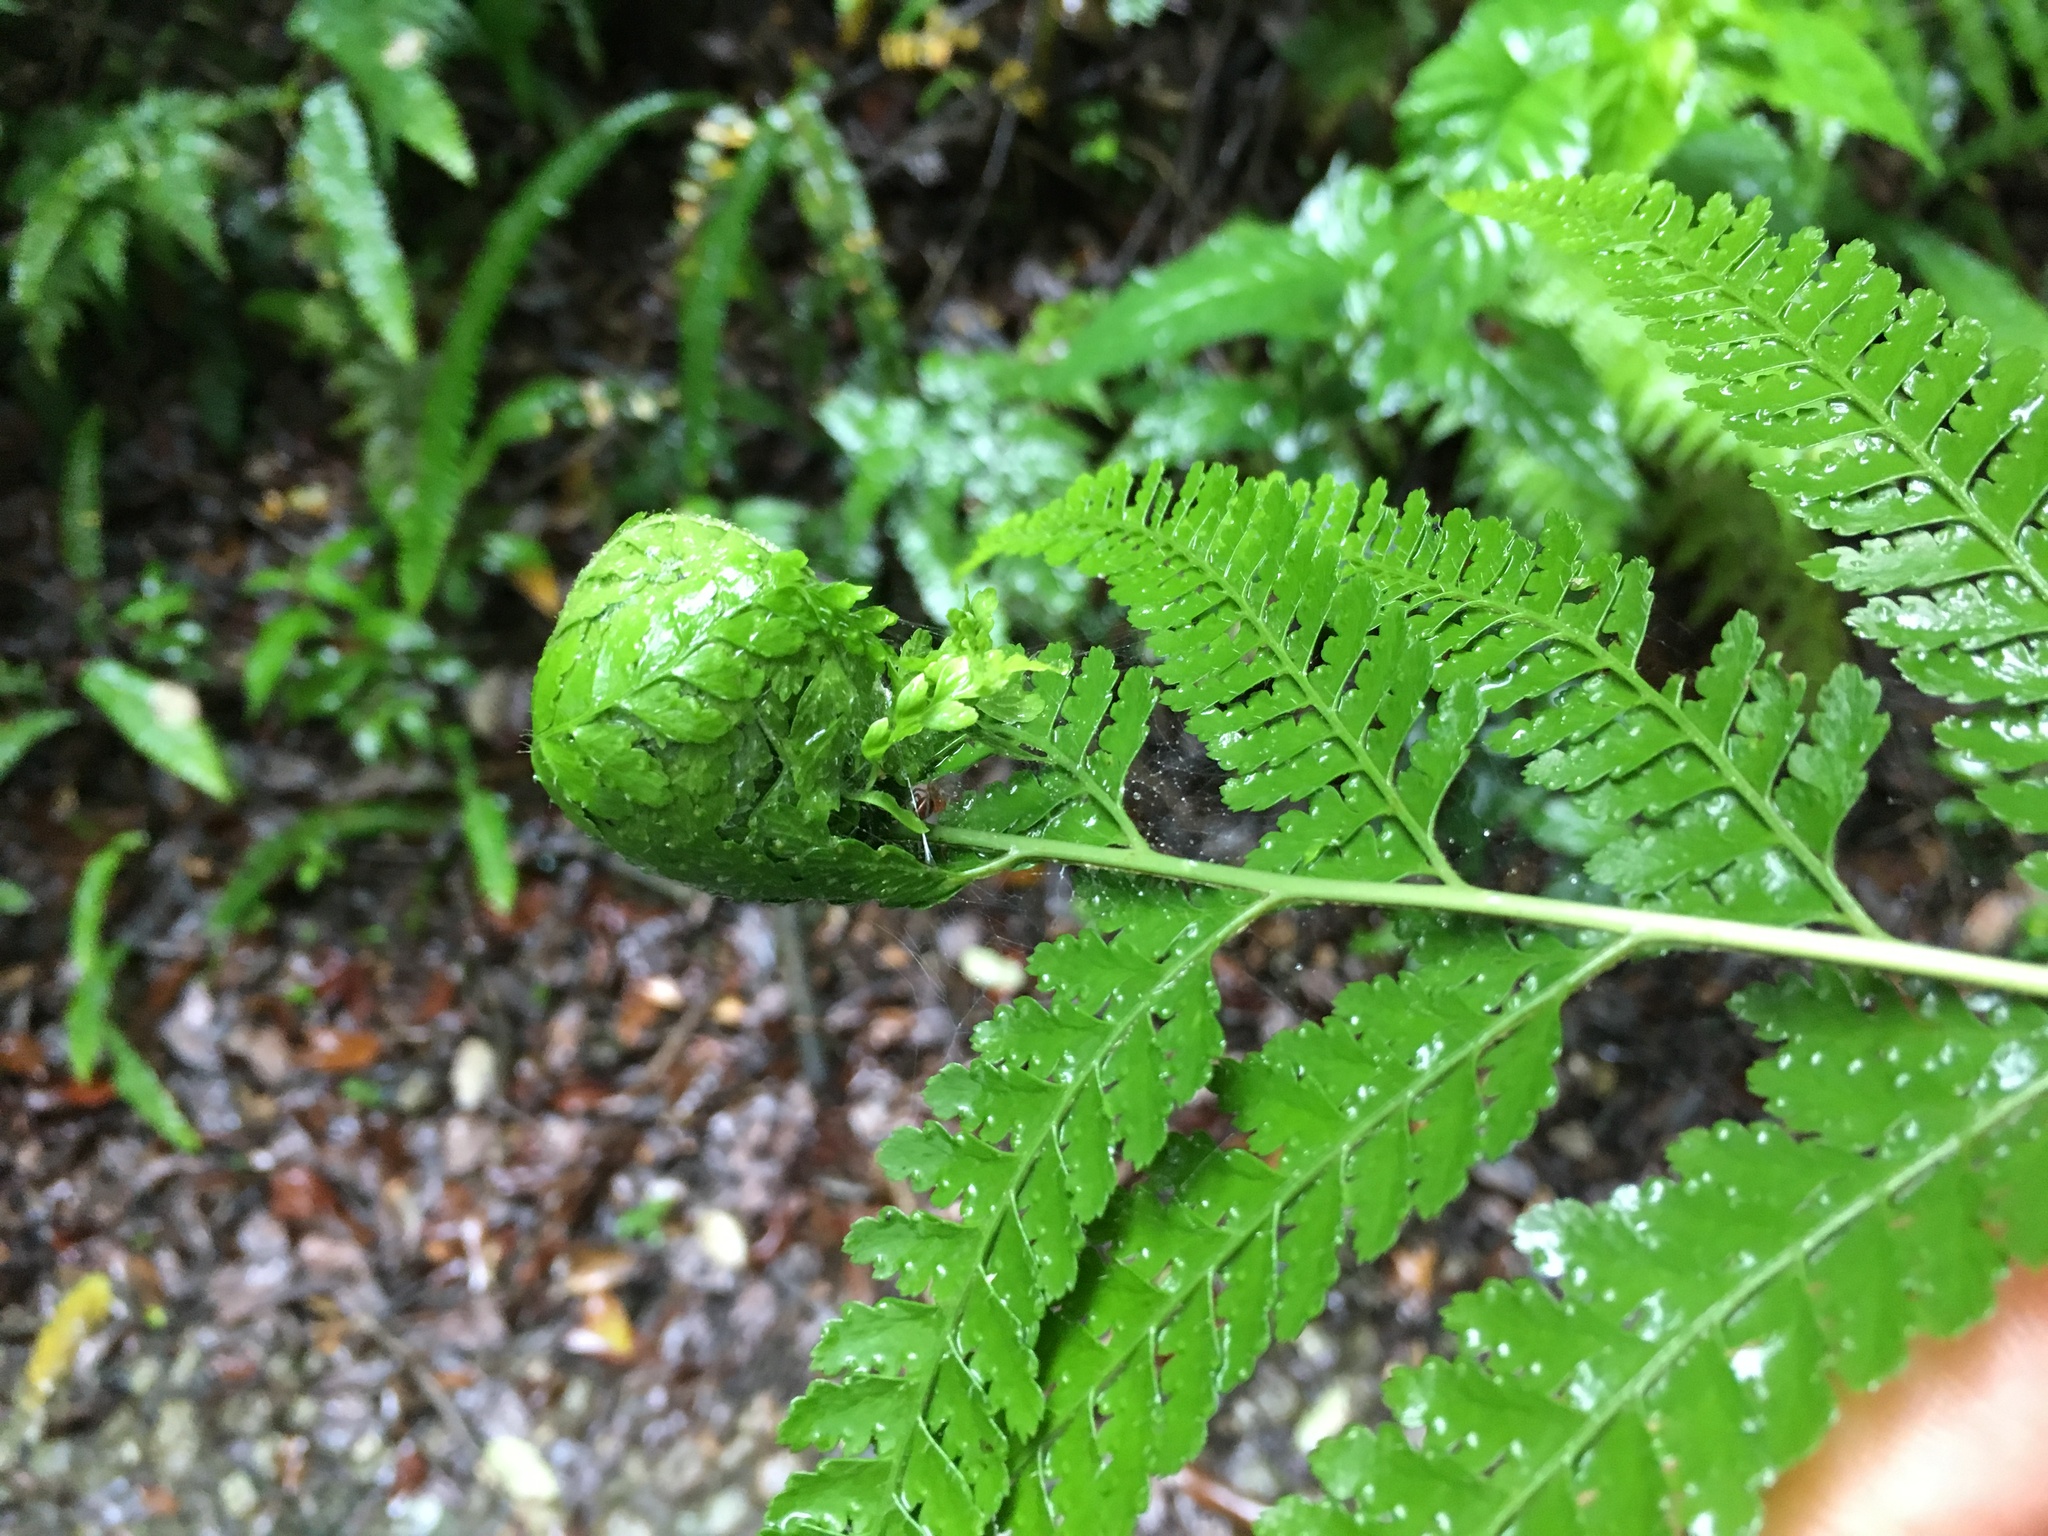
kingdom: Plantae
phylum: Tracheophyta
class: Polypodiopsida
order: Polypodiales
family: Dennstaedtiaceae
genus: Microlepia
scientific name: Microlepia strigosa
